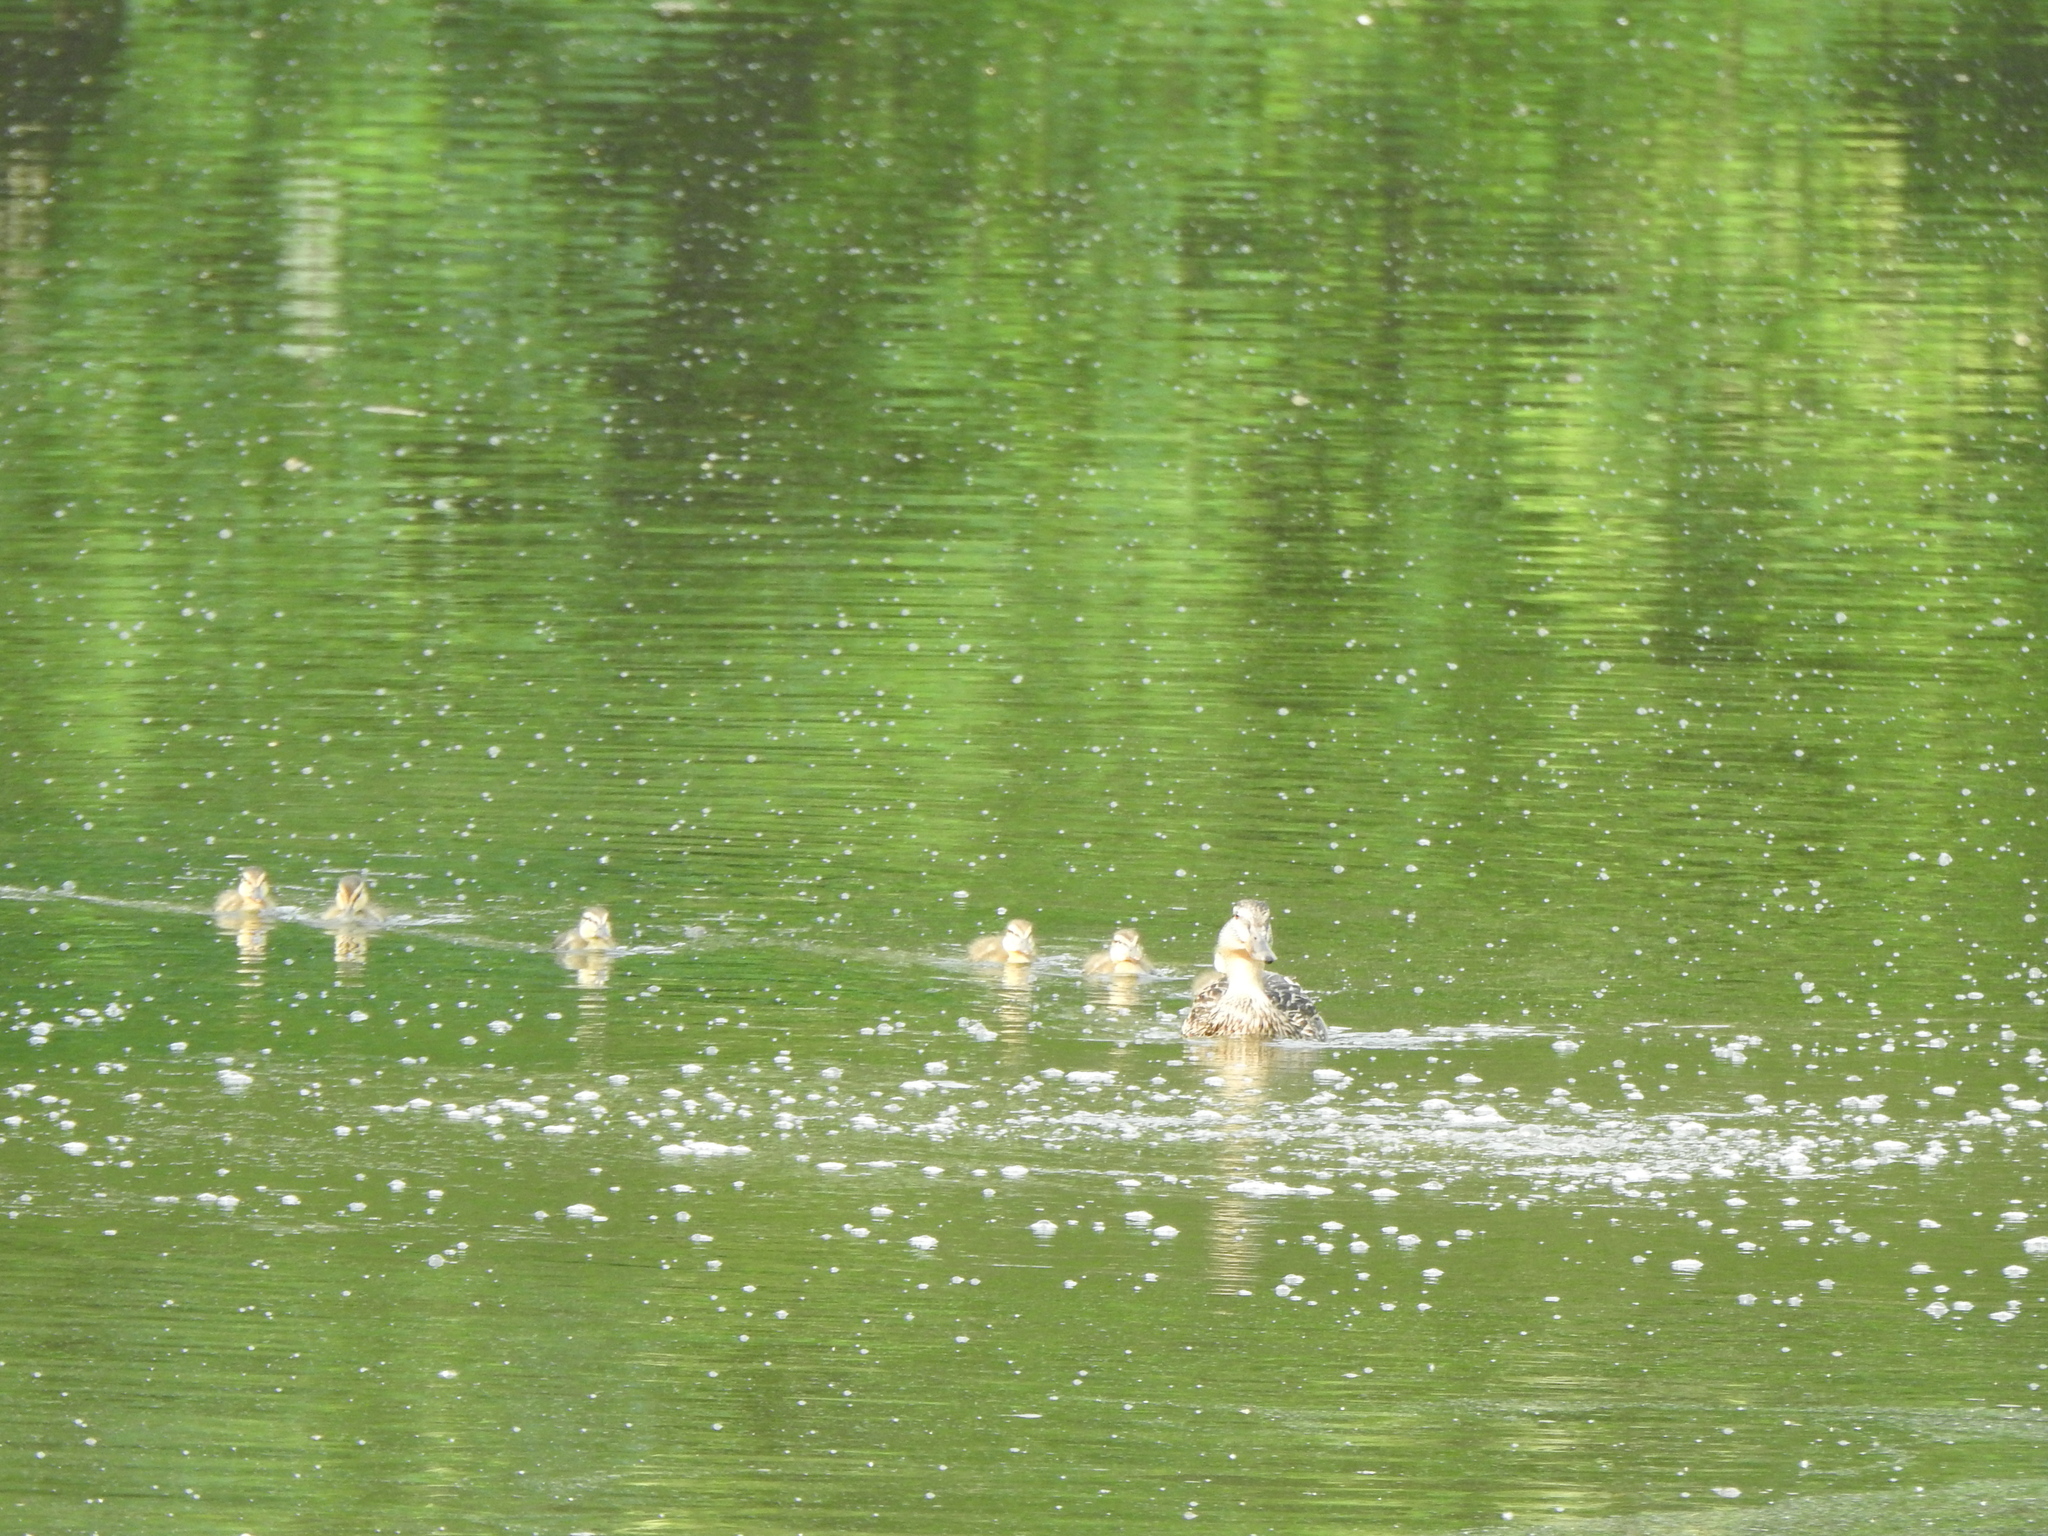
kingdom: Animalia
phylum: Chordata
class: Aves
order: Anseriformes
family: Anatidae
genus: Anas
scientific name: Anas platyrhynchos
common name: Mallard
